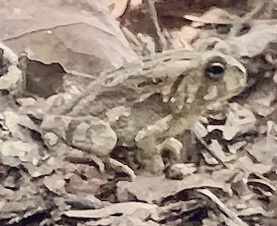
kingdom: Animalia
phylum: Chordata
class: Amphibia
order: Anura
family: Bufonidae
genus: Anaxyrus
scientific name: Anaxyrus fowleri
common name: Fowler's toad
